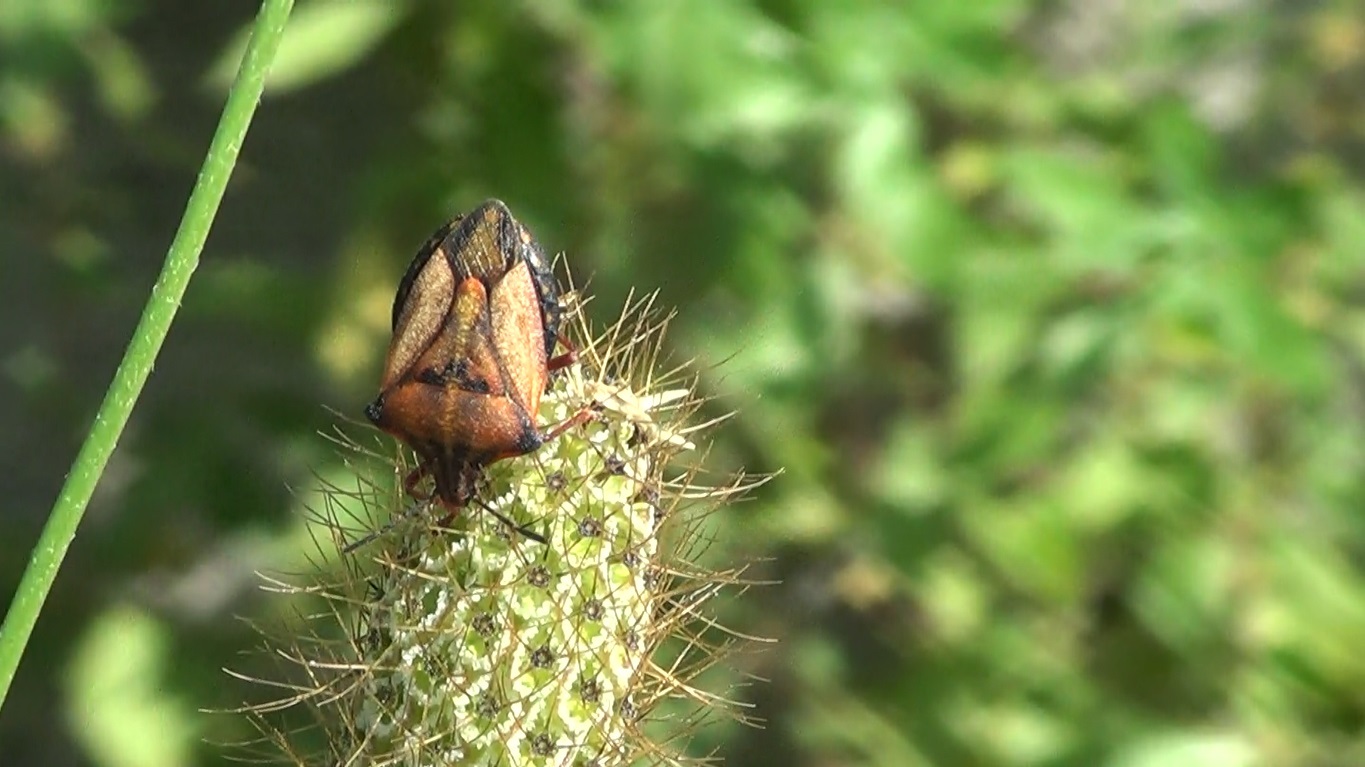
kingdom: Animalia
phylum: Arthropoda
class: Insecta
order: Hemiptera
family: Pentatomidae
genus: Carpocoris
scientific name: Carpocoris mediterraneus
